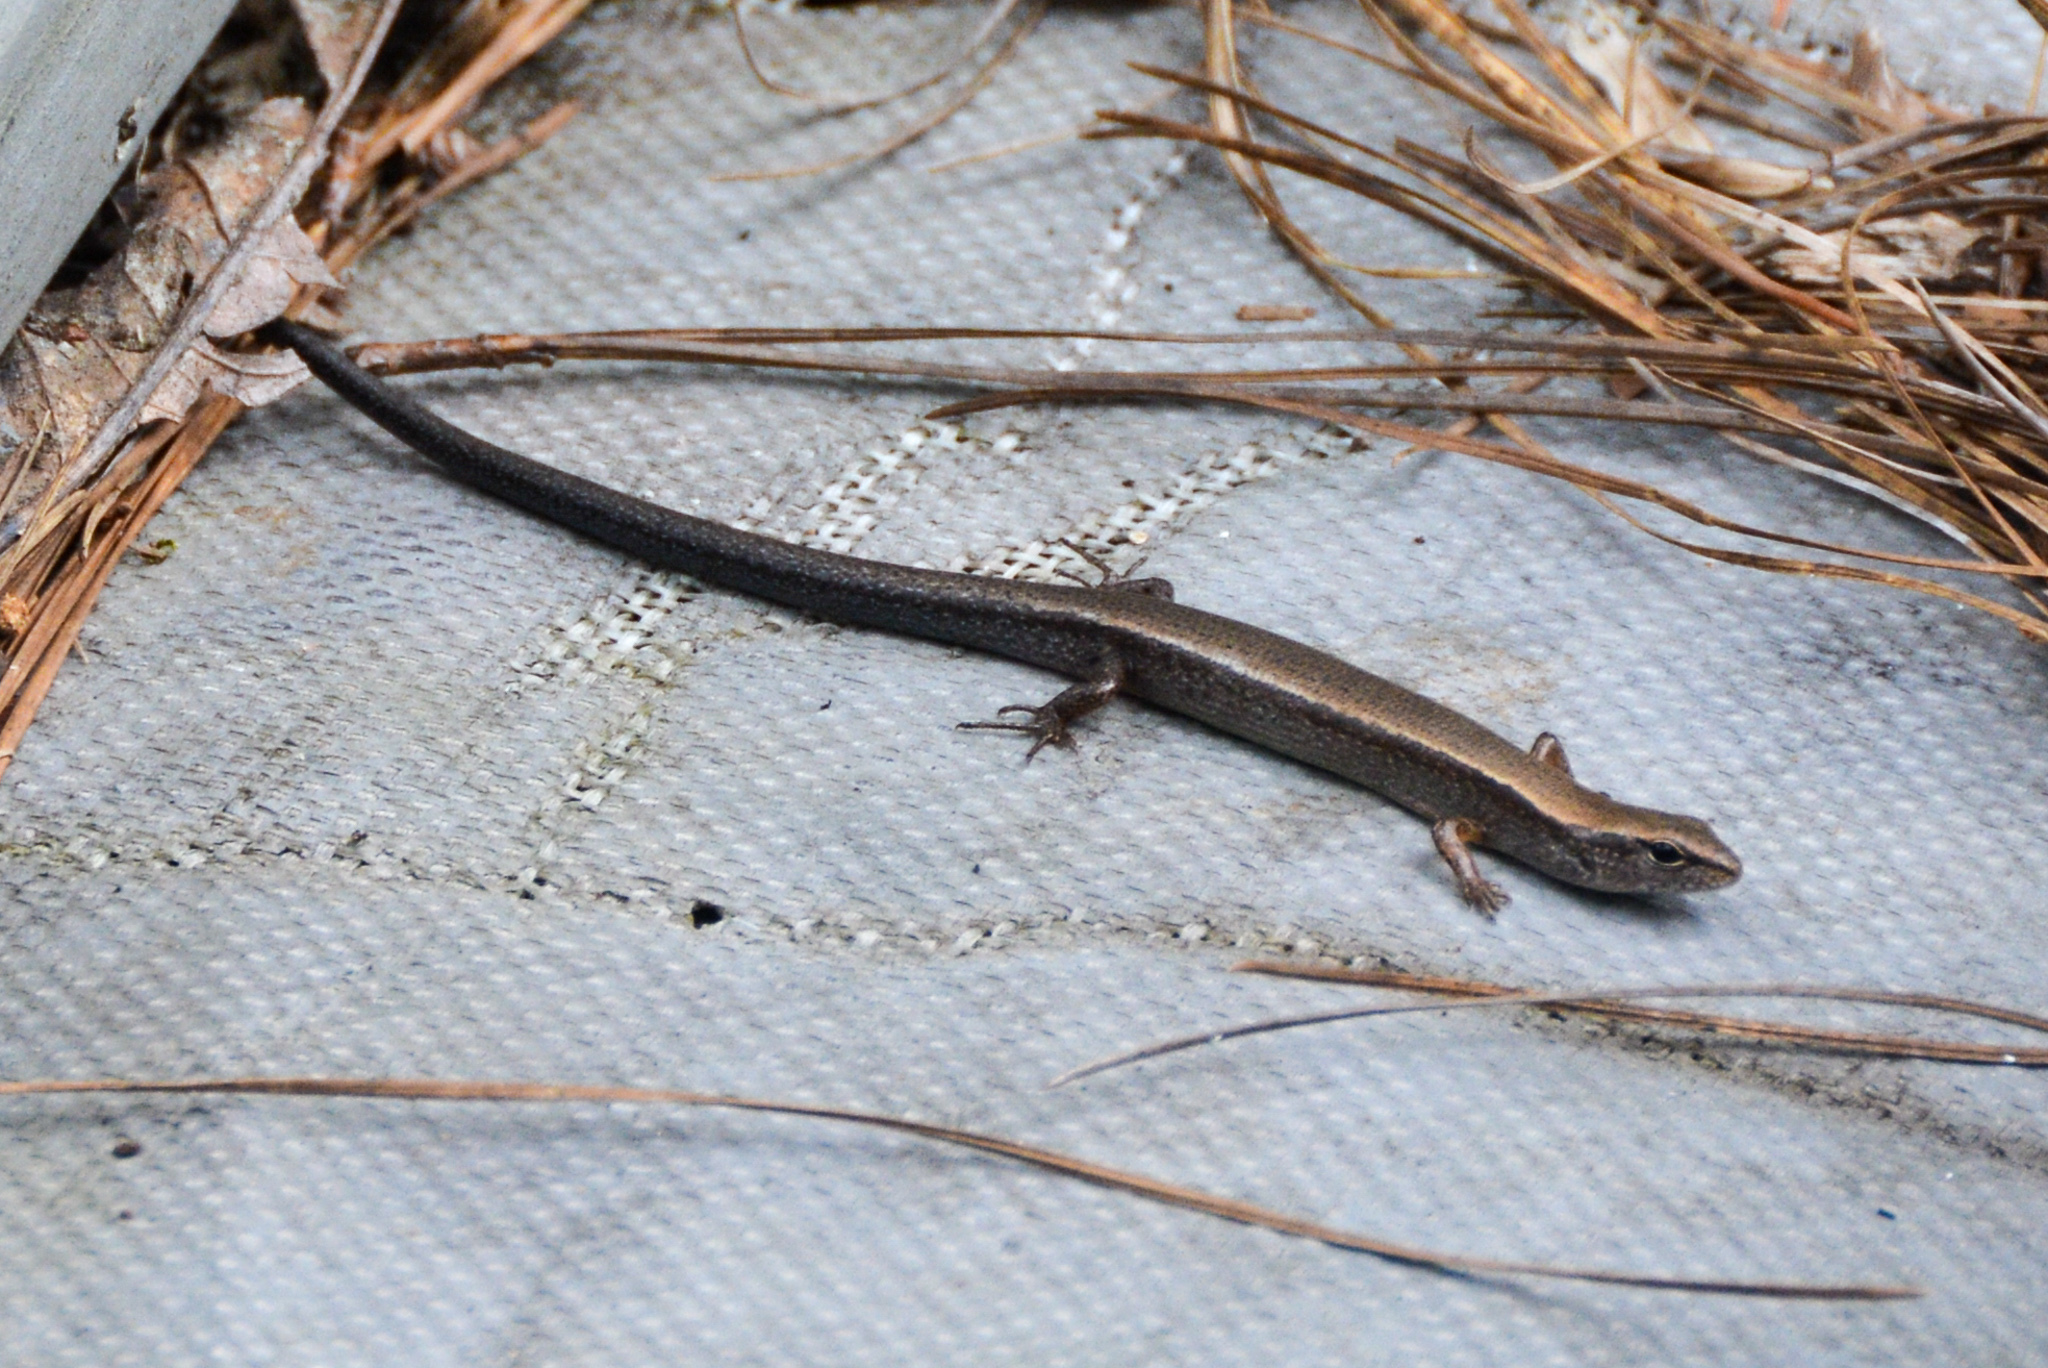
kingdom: Animalia
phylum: Chordata
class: Squamata
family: Scincidae
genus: Scincella
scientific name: Scincella lateralis
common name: Ground skink
